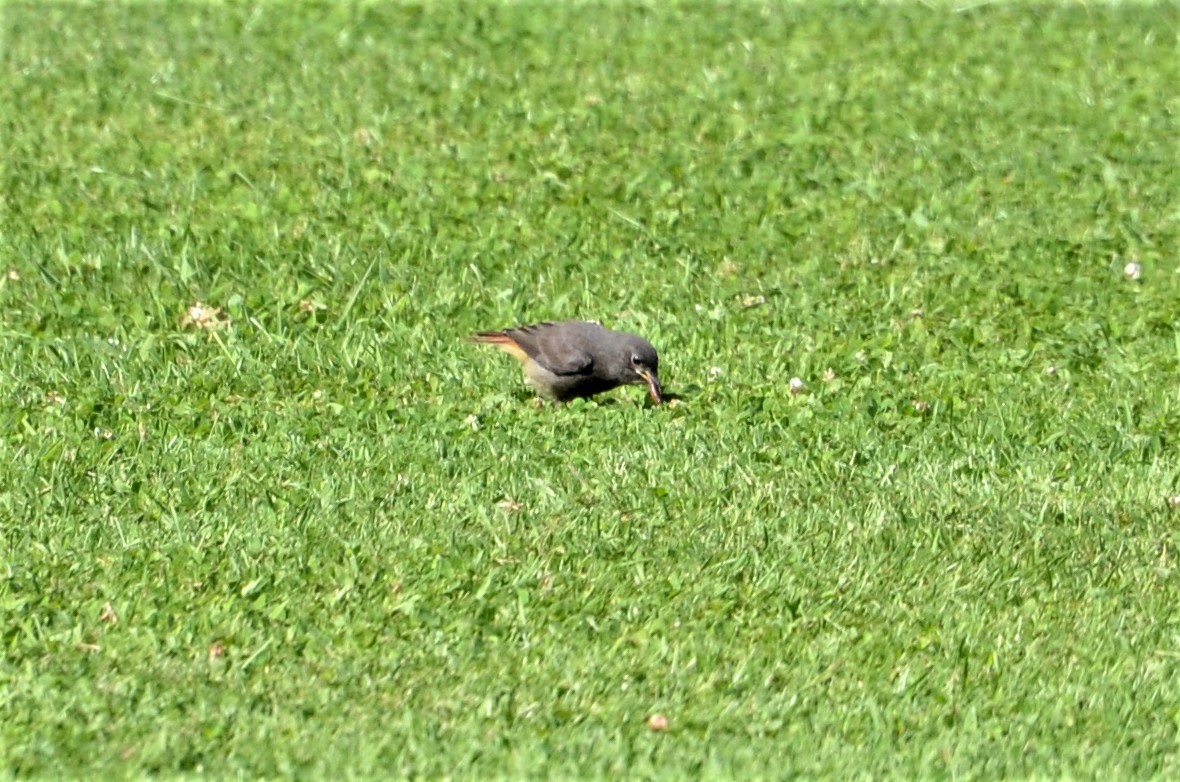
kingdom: Animalia
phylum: Chordata
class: Aves
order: Passeriformes
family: Muscicapidae
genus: Phoenicurus
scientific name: Phoenicurus ochruros
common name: Black redstart
